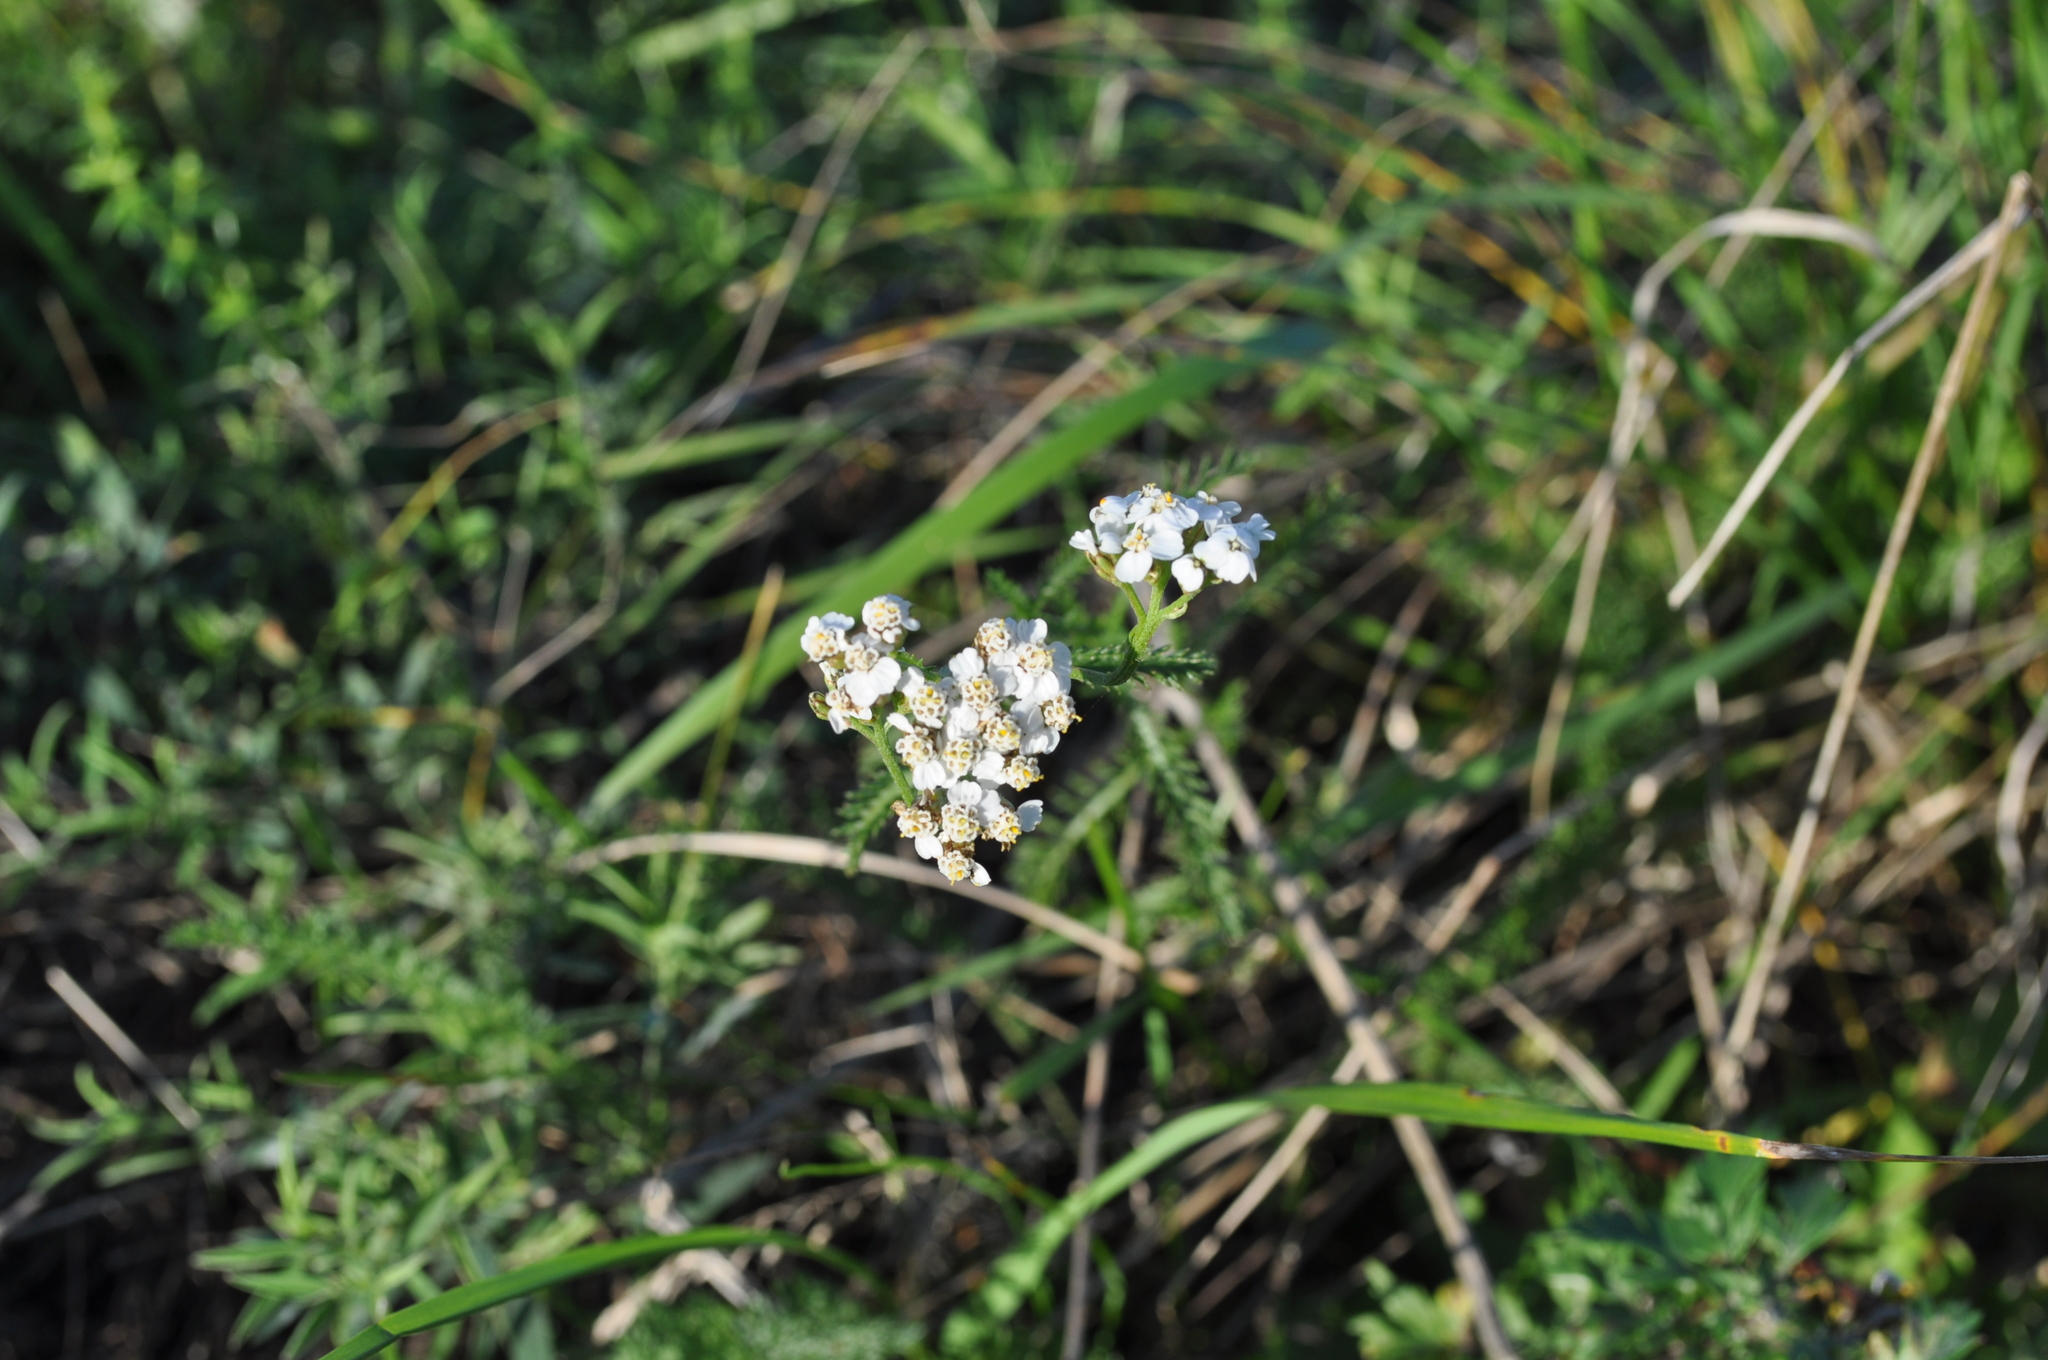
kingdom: Plantae
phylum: Tracheophyta
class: Magnoliopsida
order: Asterales
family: Asteraceae
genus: Achillea
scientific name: Achillea millefolium
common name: Yarrow
